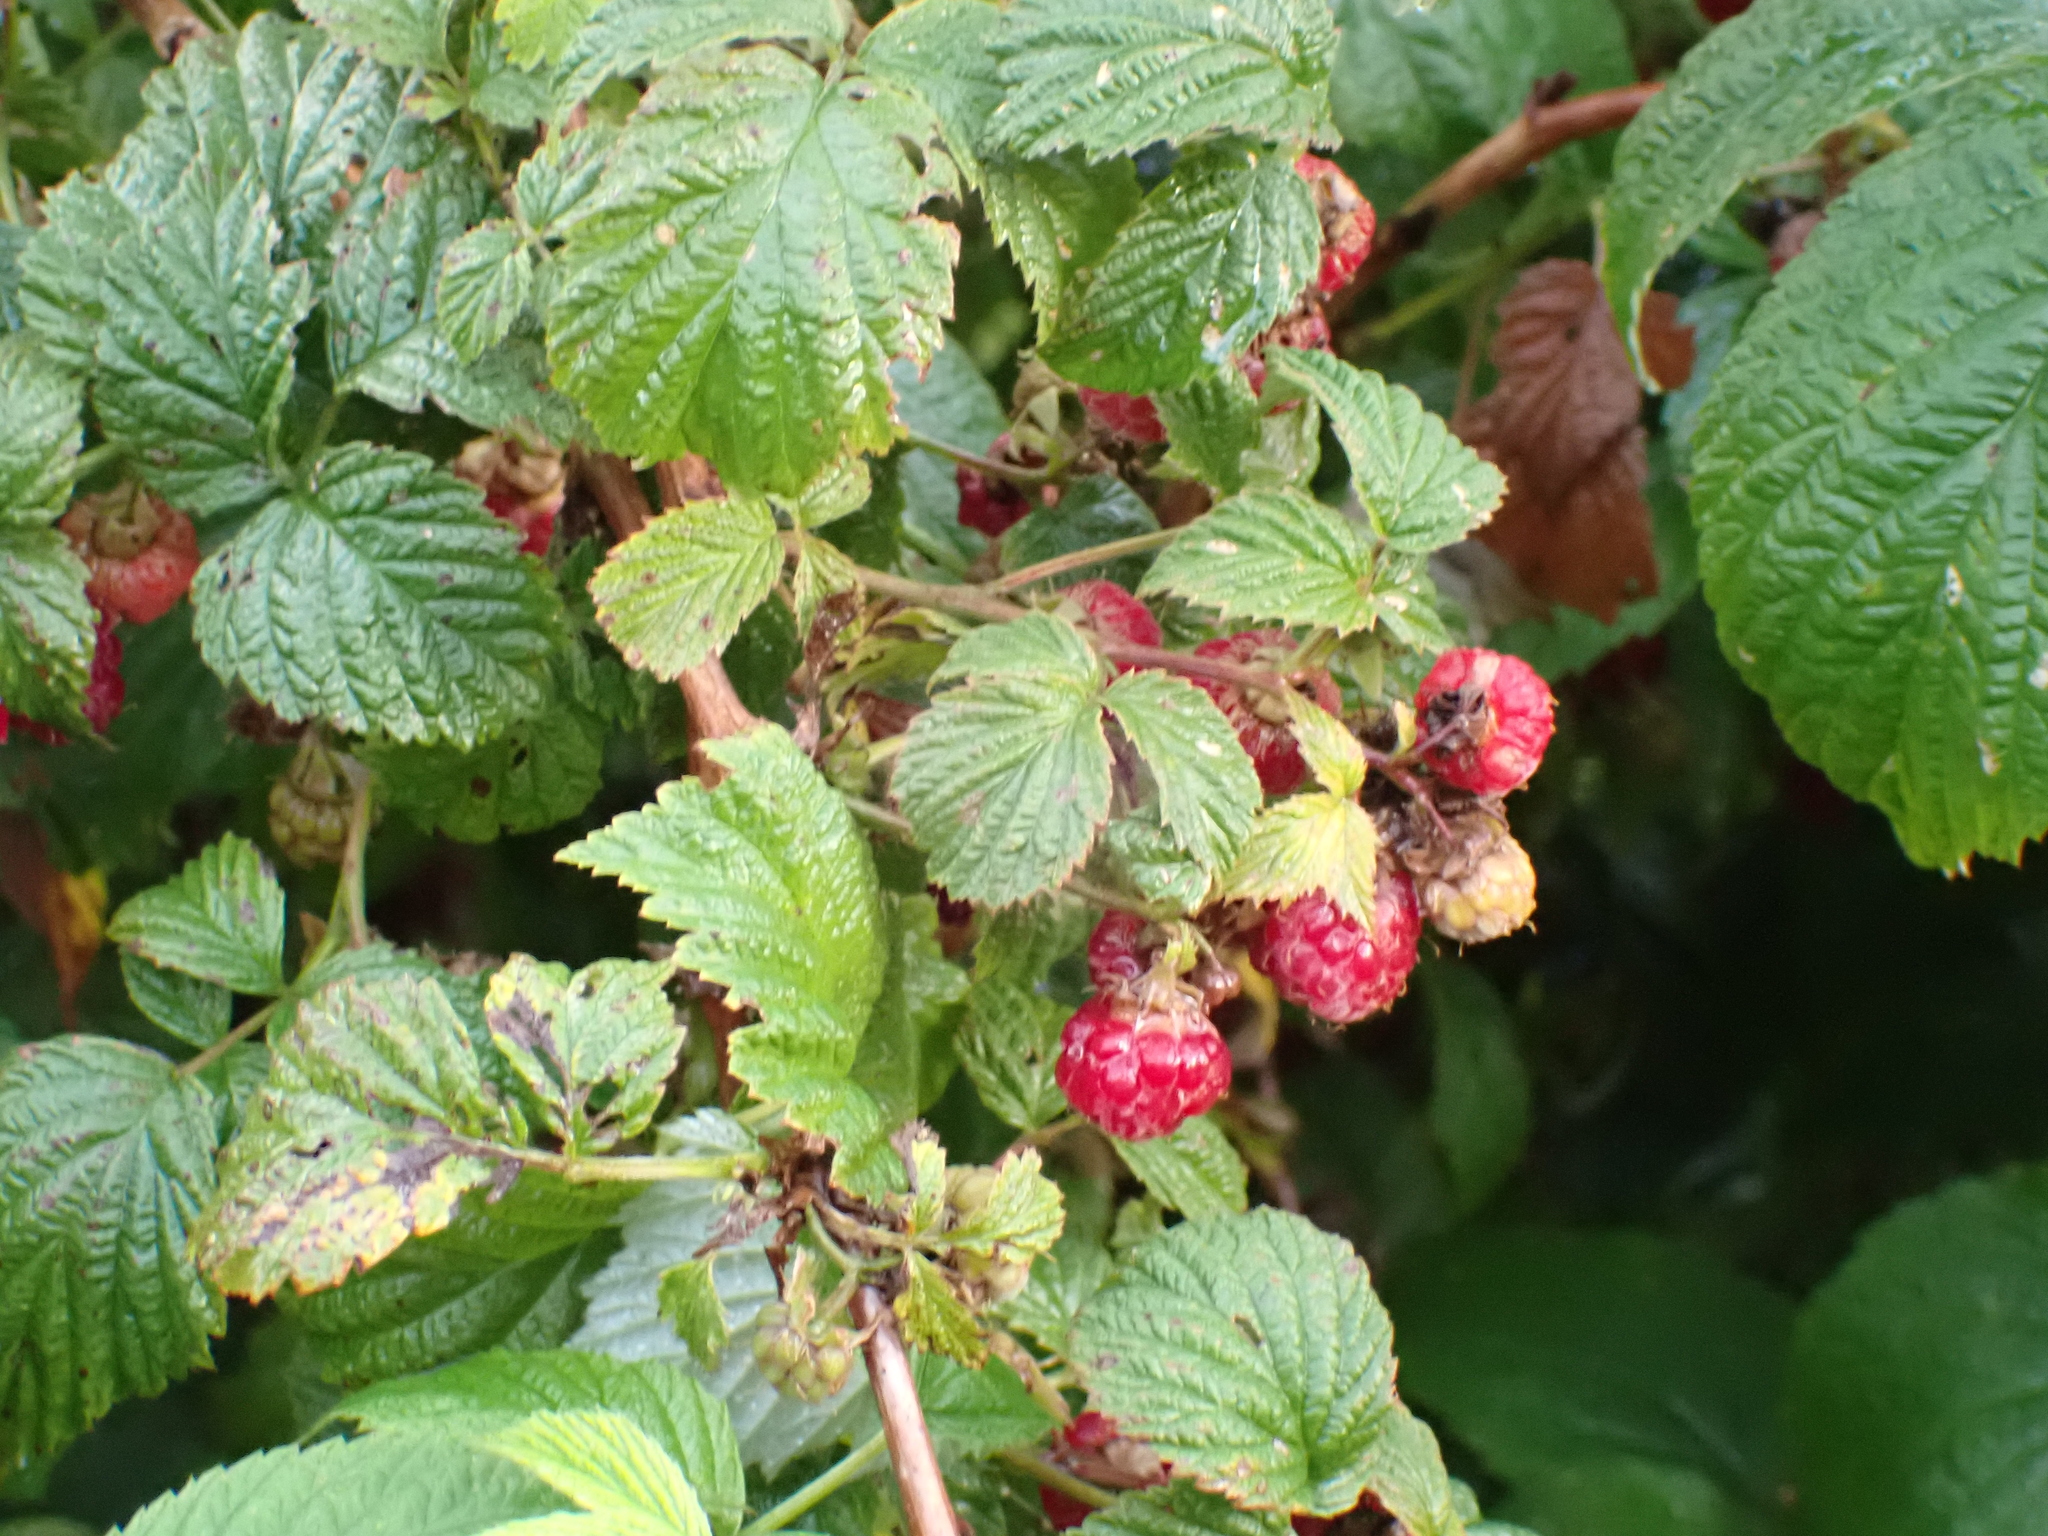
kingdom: Plantae
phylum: Tracheophyta
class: Magnoliopsida
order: Rosales
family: Rosaceae
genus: Rubus
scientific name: Rubus idaeus
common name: Raspberry
